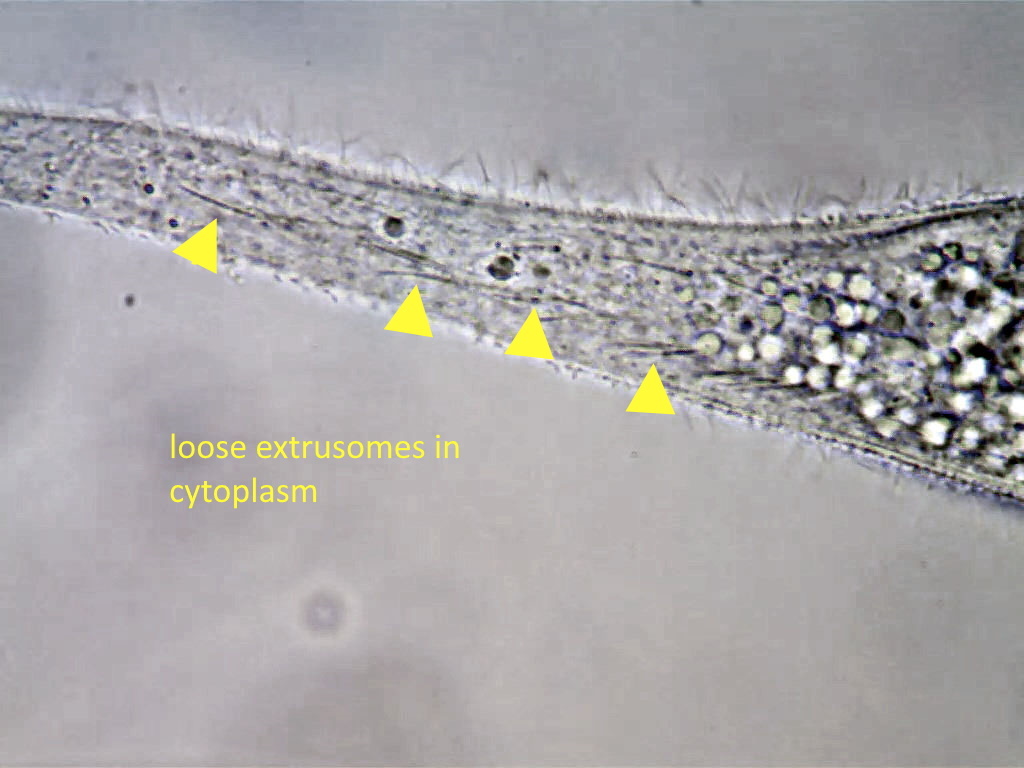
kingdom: Chromista
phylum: Ciliophora
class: Gymnostomatea
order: Pleurostomatida
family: Amphileptidae
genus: Amphileptus
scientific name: Amphileptus procerus
